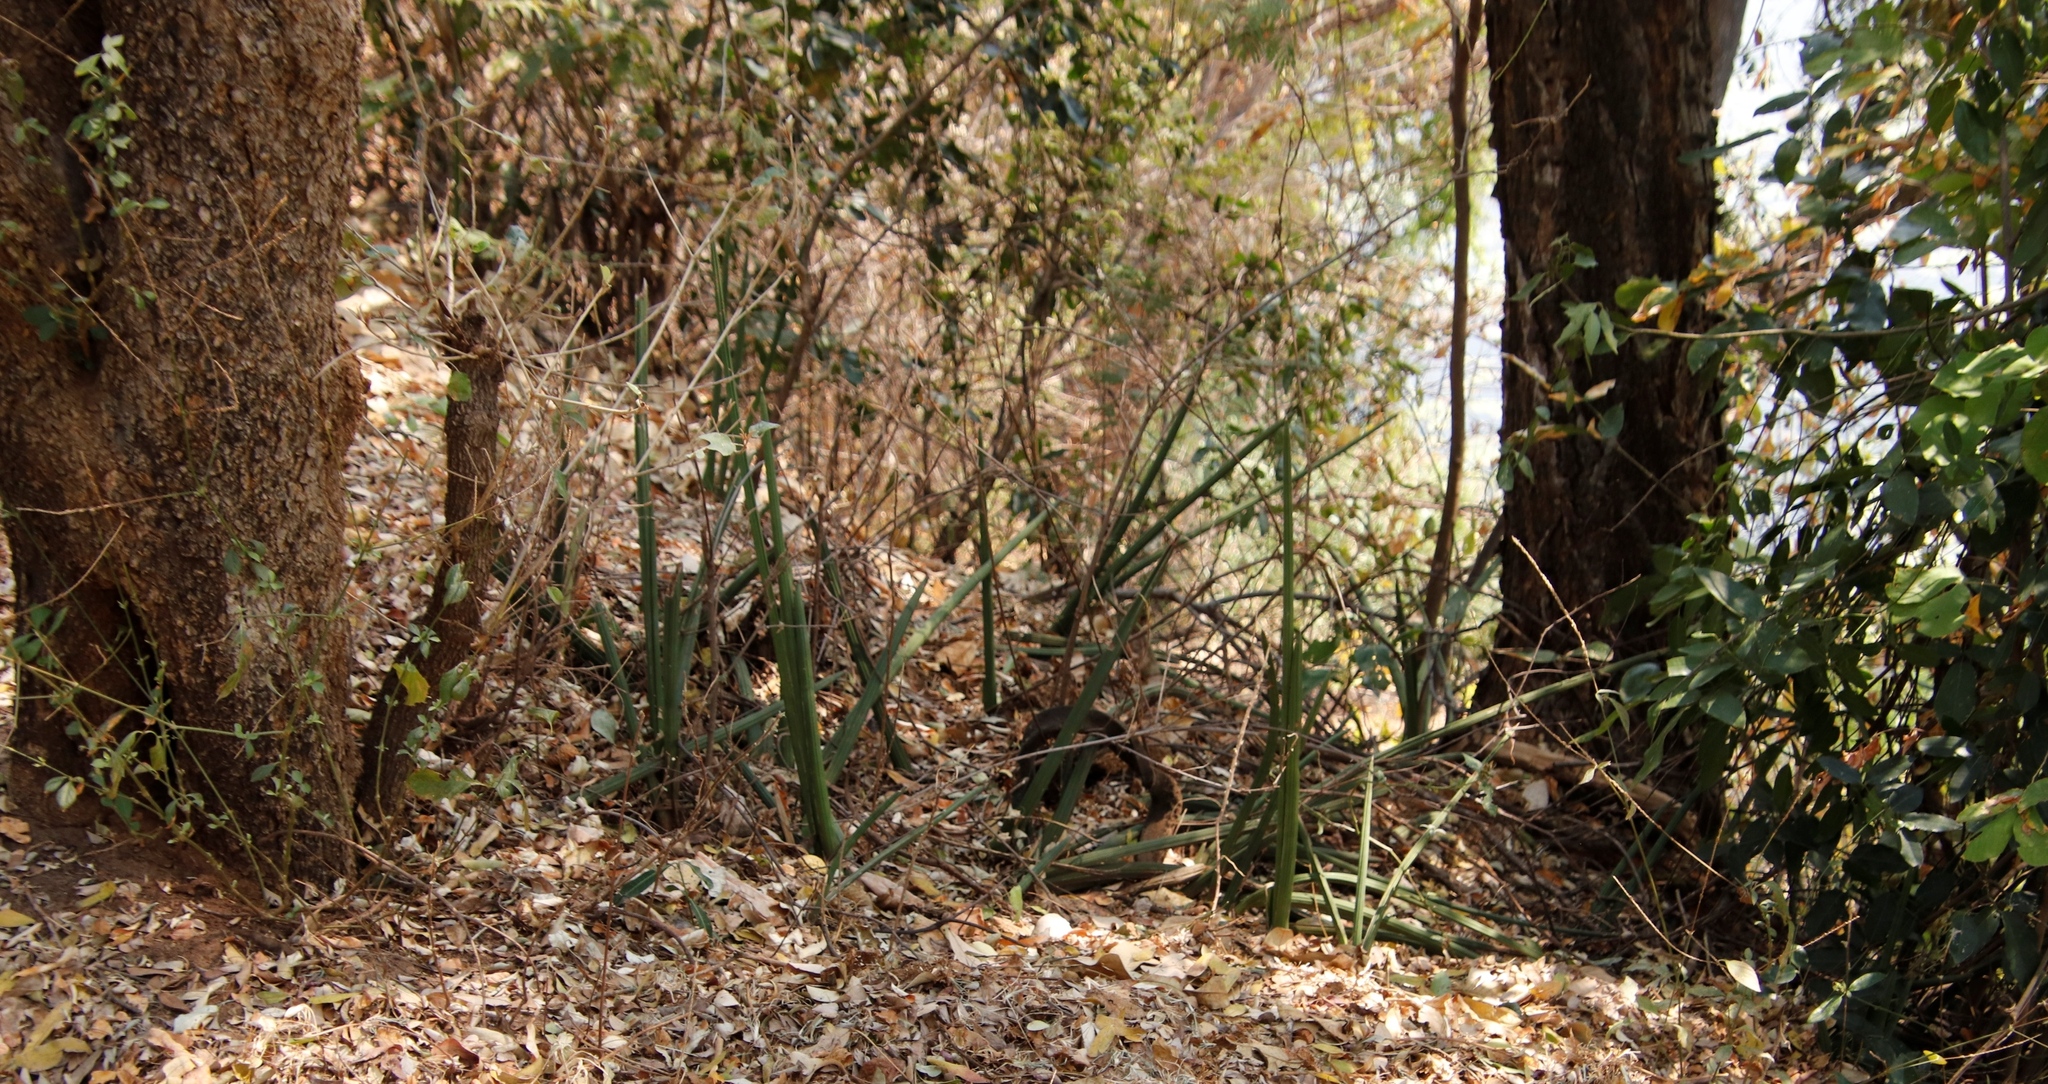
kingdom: Plantae
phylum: Tracheophyta
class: Liliopsida
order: Asparagales
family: Asparagaceae
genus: Dracaena
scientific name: Dracaena pearsonii
